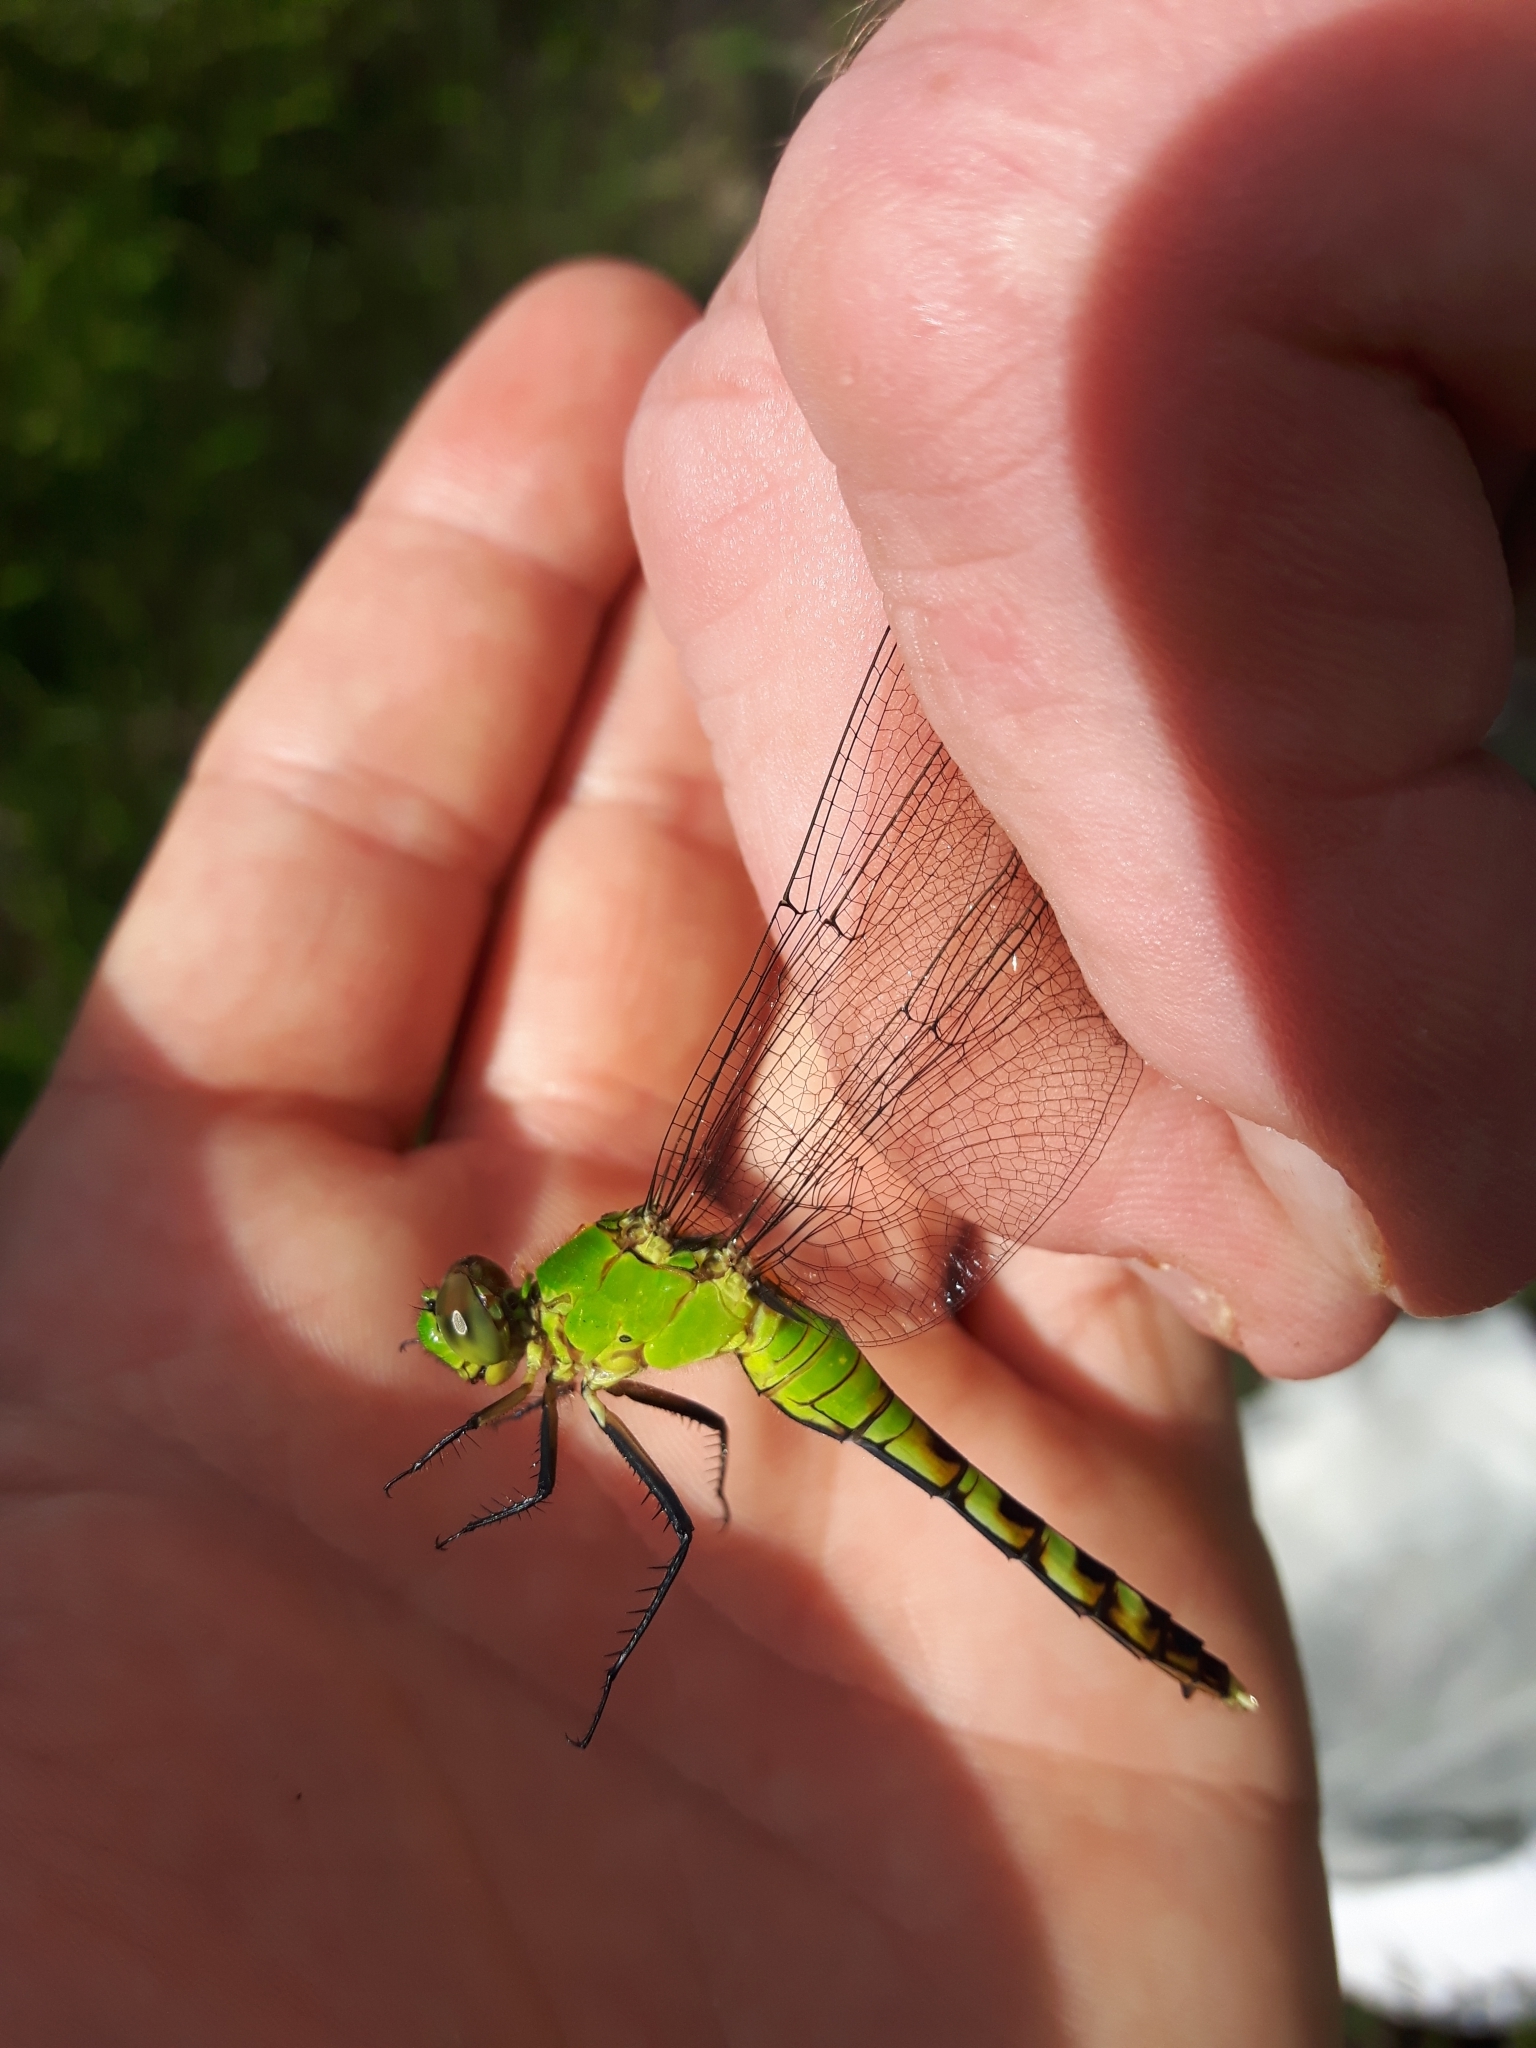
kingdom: Animalia
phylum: Arthropoda
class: Insecta
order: Odonata
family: Libellulidae
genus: Erythemis
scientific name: Erythemis simplicicollis
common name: Eastern pondhawk
